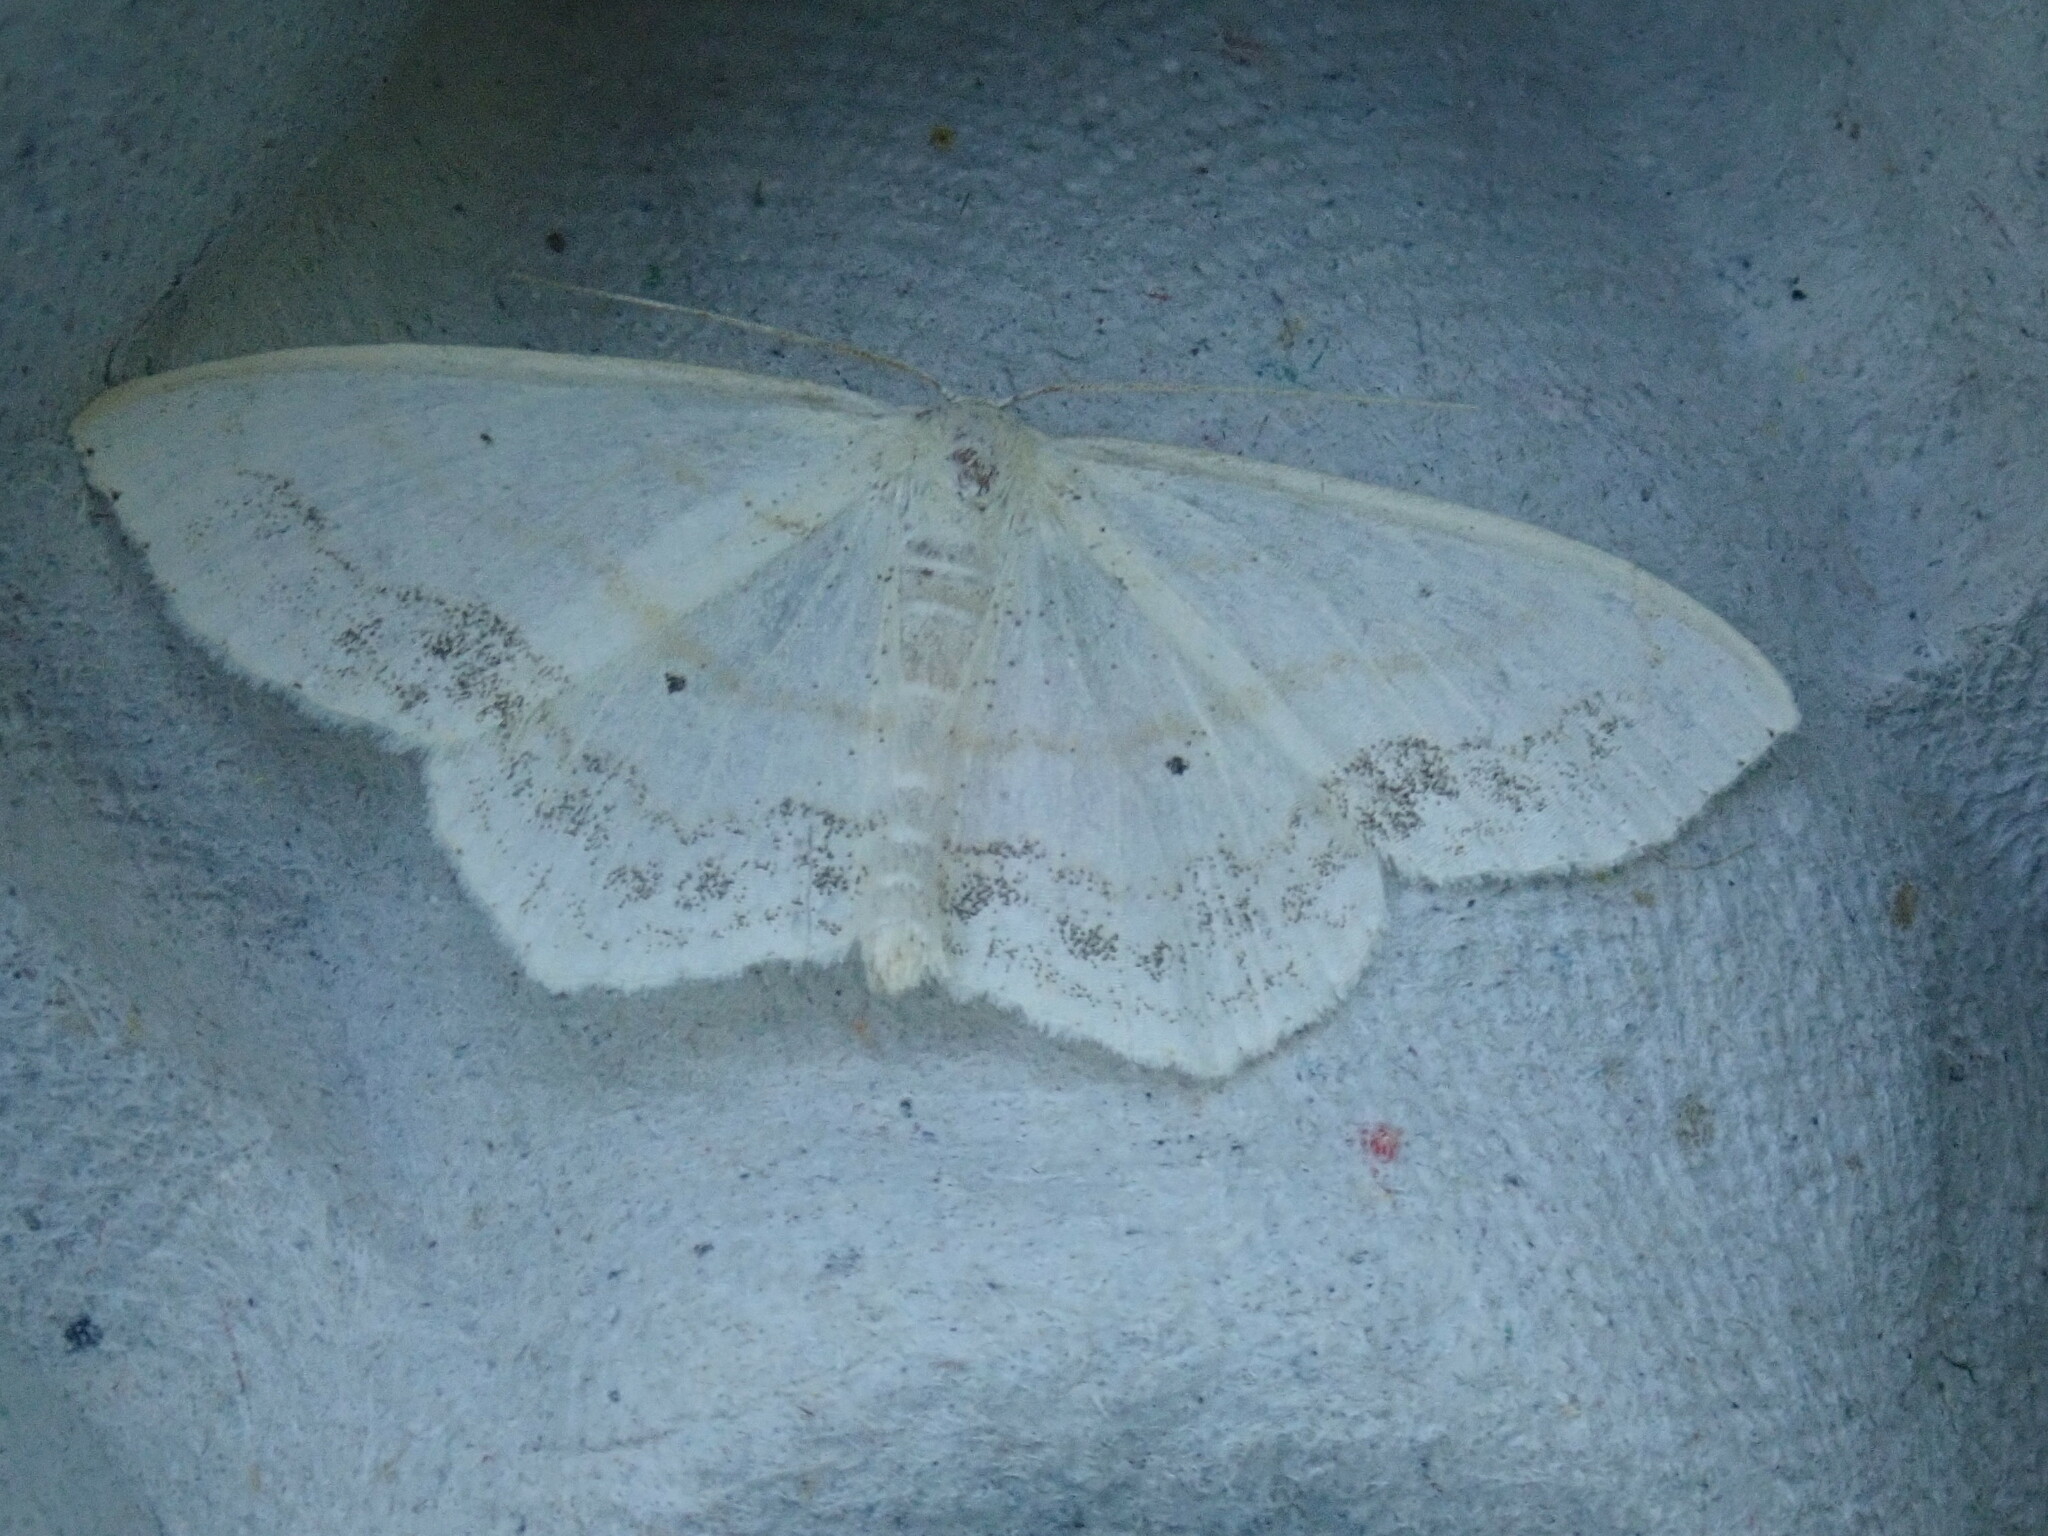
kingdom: Animalia
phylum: Arthropoda
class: Insecta
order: Lepidoptera
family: Geometridae
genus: Scopula
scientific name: Scopula limboundata
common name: Large lace border
